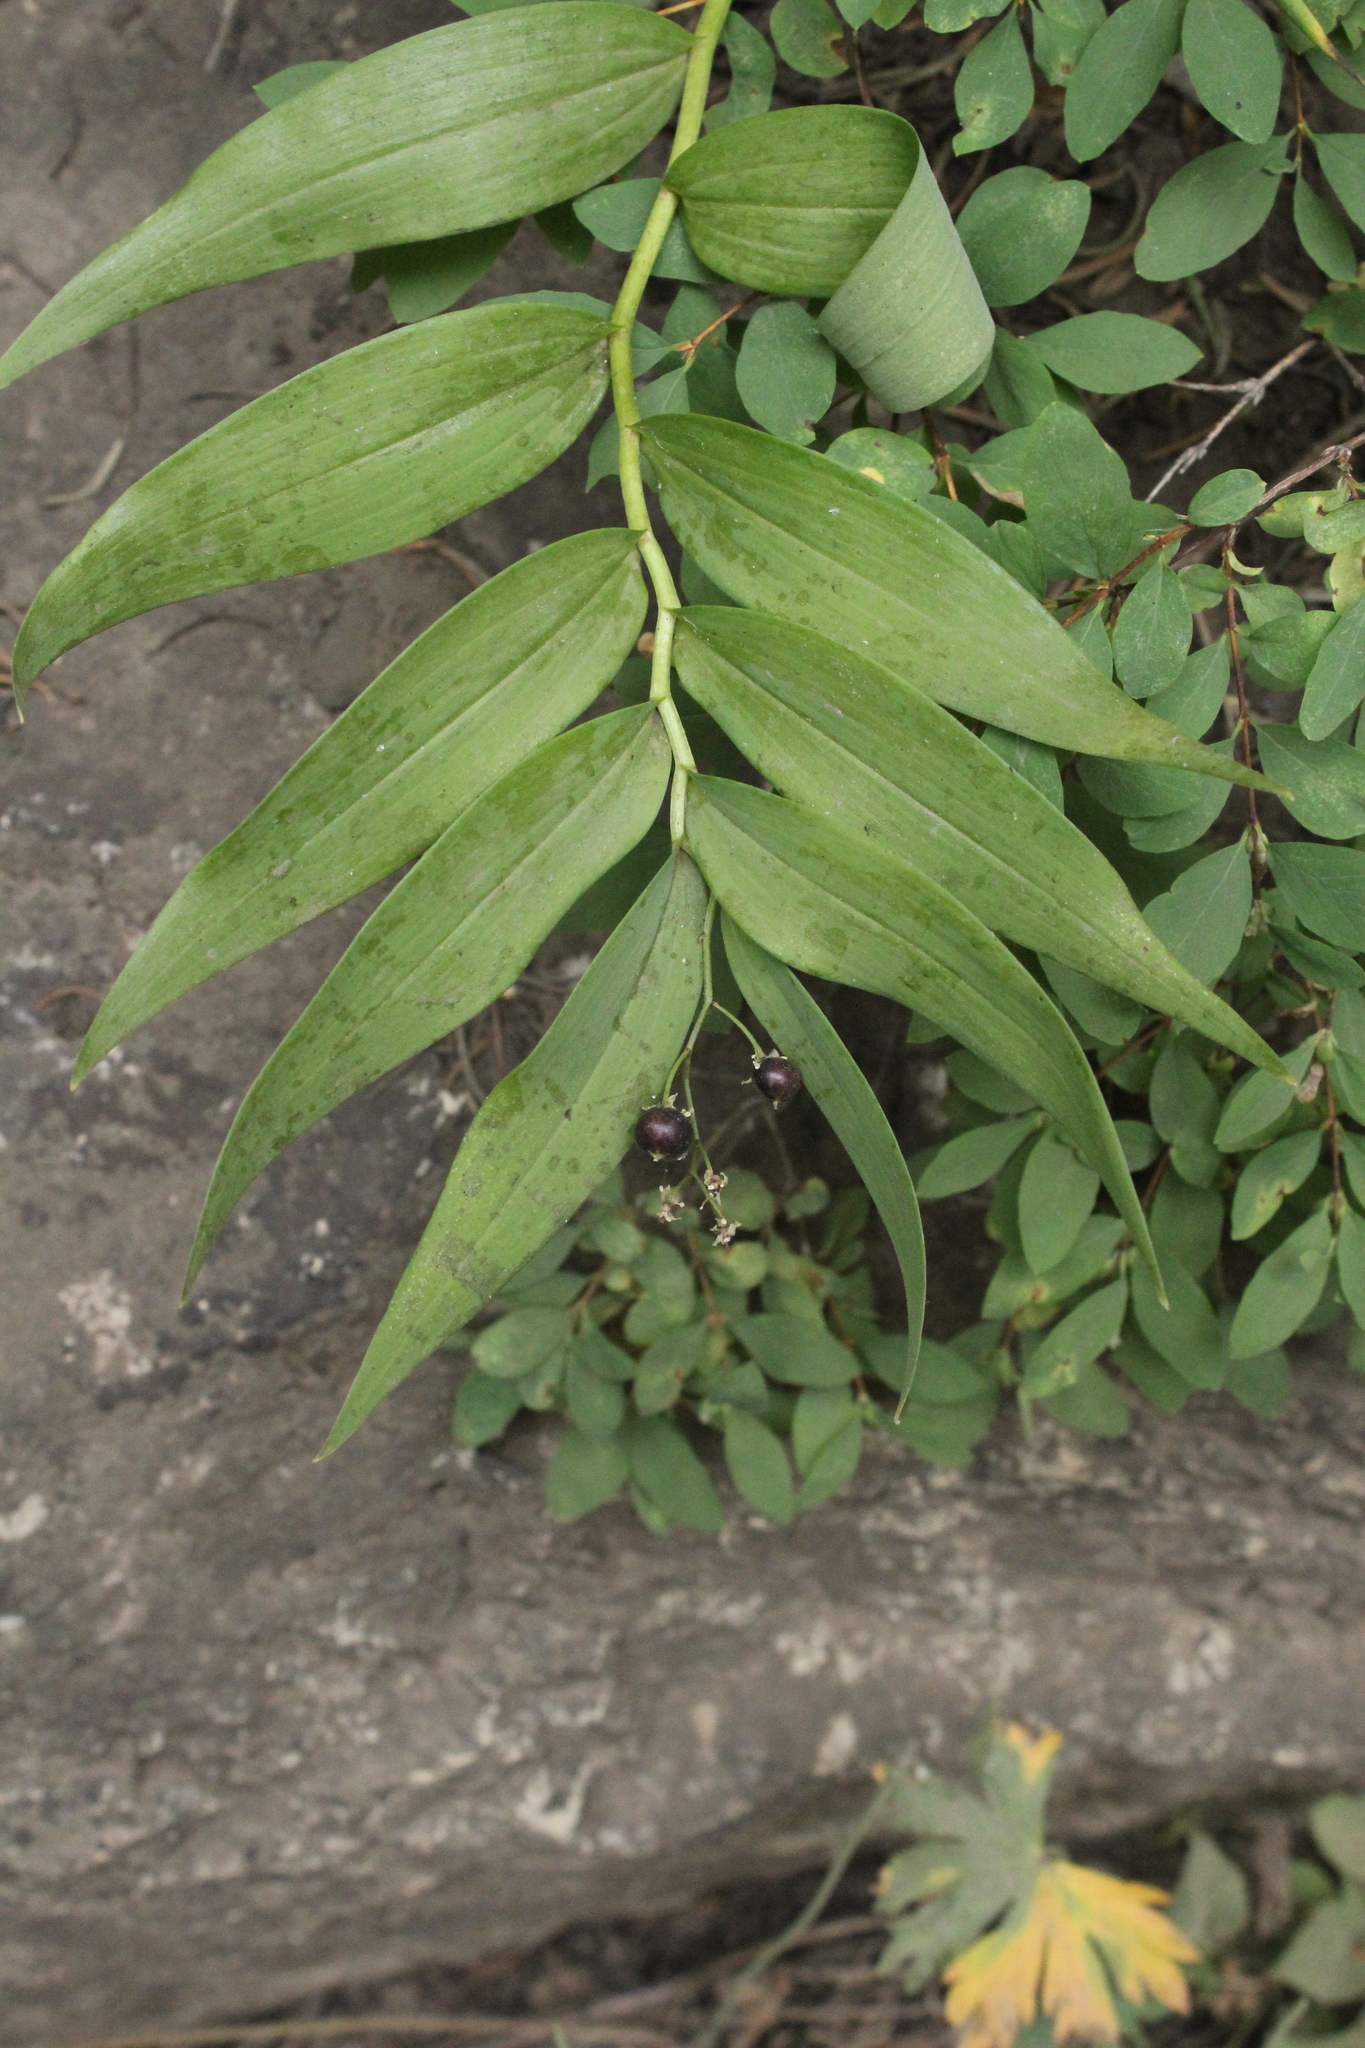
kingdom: Plantae
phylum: Tracheophyta
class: Liliopsida
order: Asparagales
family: Asparagaceae
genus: Maianthemum
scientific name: Maianthemum stellatum
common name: Little false solomon's seal
